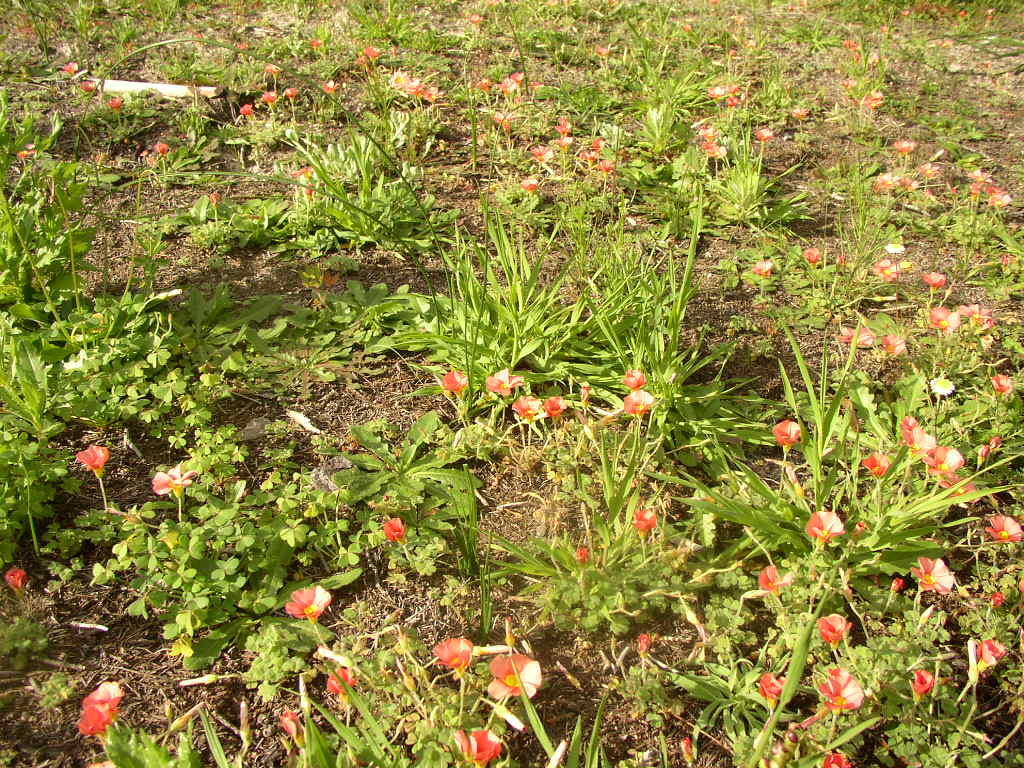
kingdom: Plantae
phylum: Tracheophyta
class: Magnoliopsida
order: Oxalidales
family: Oxalidaceae
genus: Oxalis
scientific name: Oxalis obtusa
